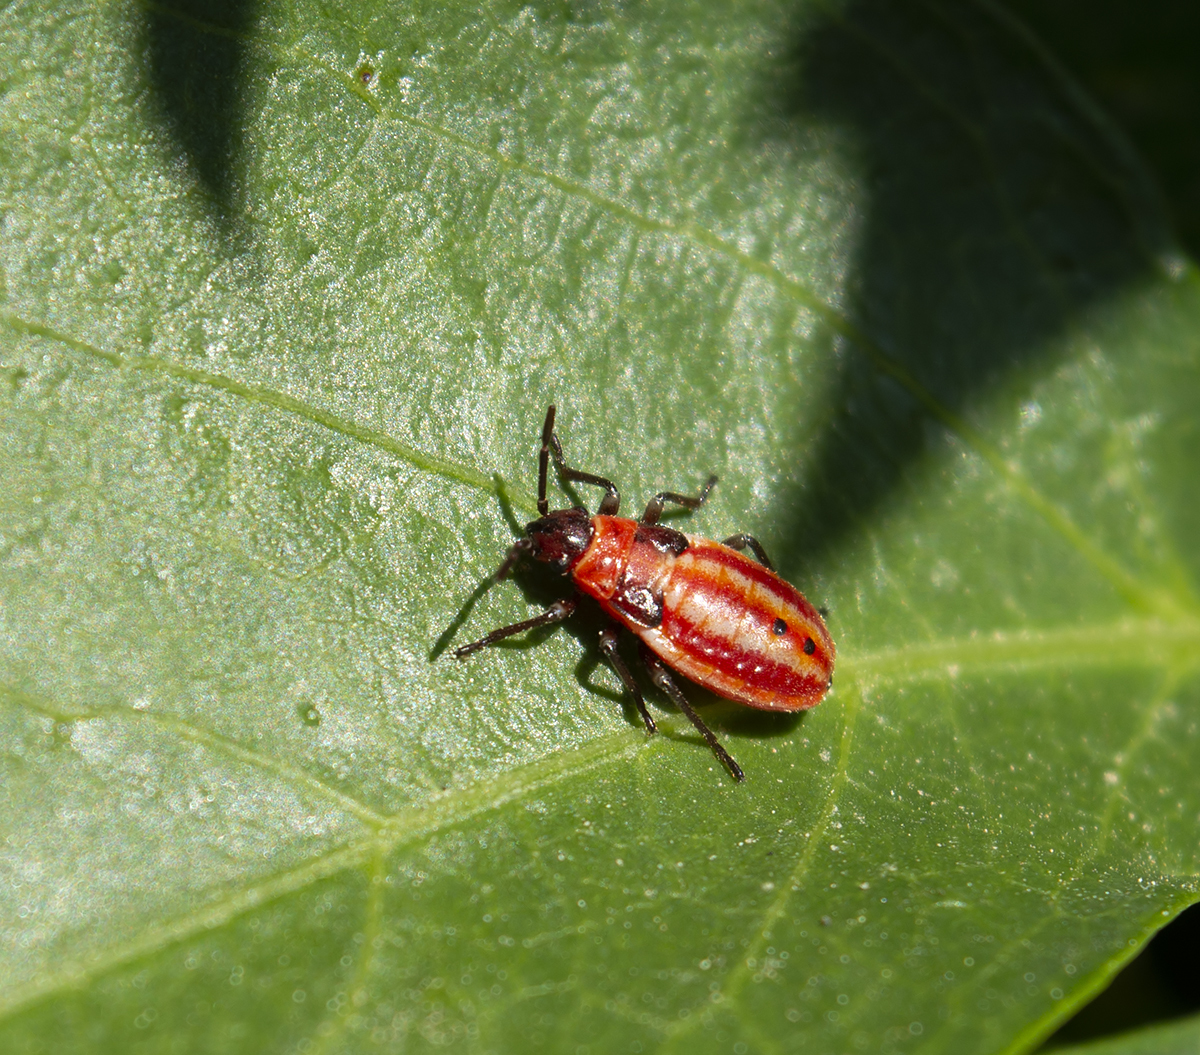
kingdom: Animalia
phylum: Arthropoda
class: Insecta
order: Hemiptera
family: Lygaeidae
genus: Lygaeus
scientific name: Lygaeus creticus
